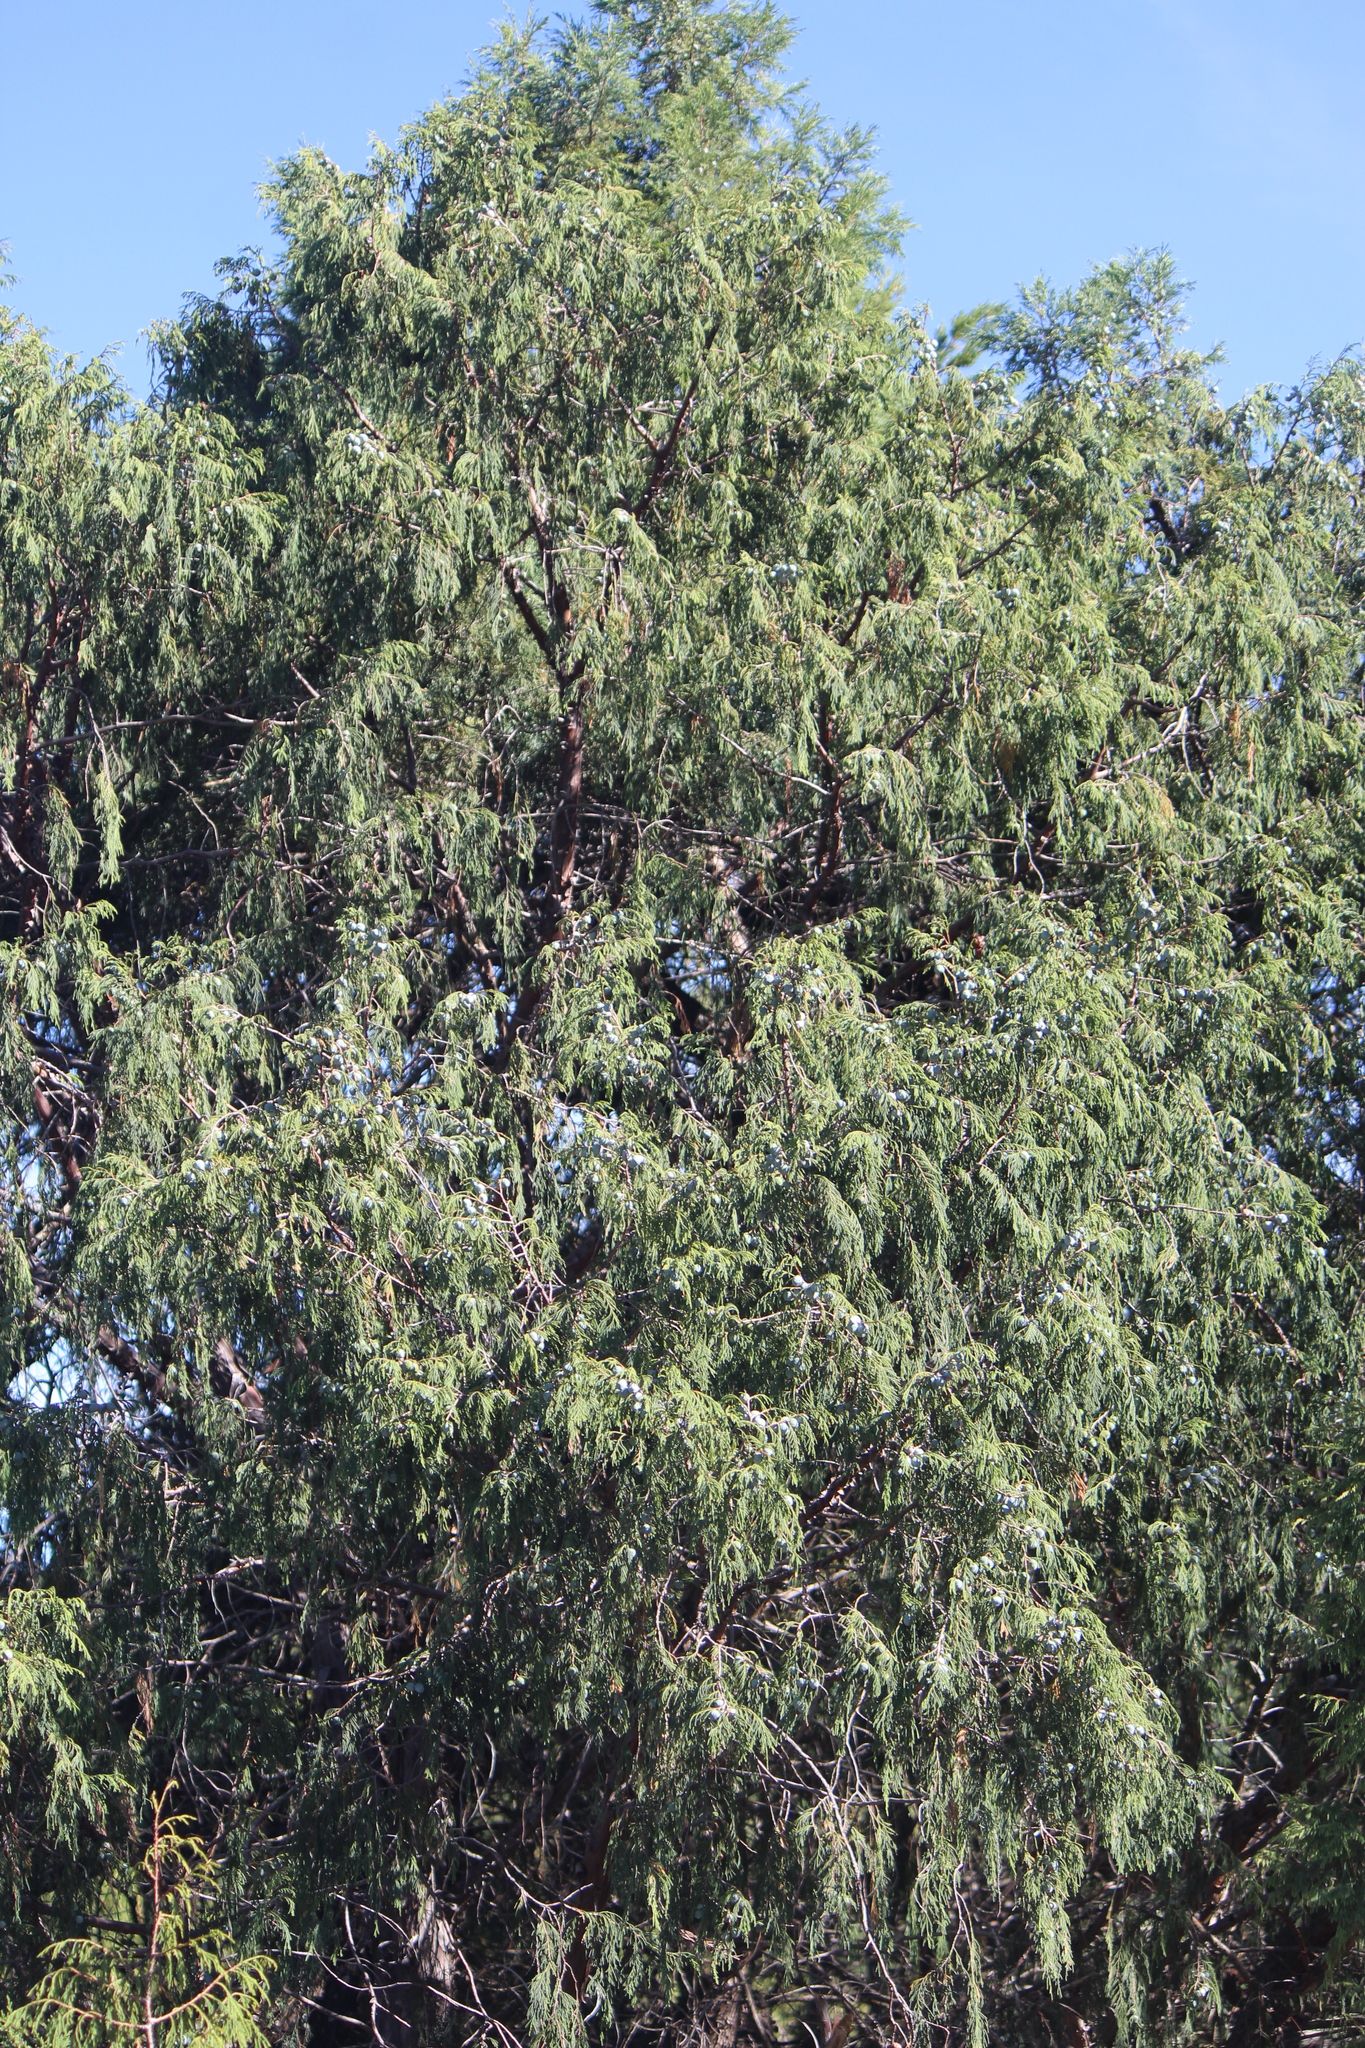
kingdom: Plantae
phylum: Tracheophyta
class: Pinopsida
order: Pinales
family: Cupressaceae
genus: Juniperus
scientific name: Juniperus flaccida
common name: Drooping juniper
